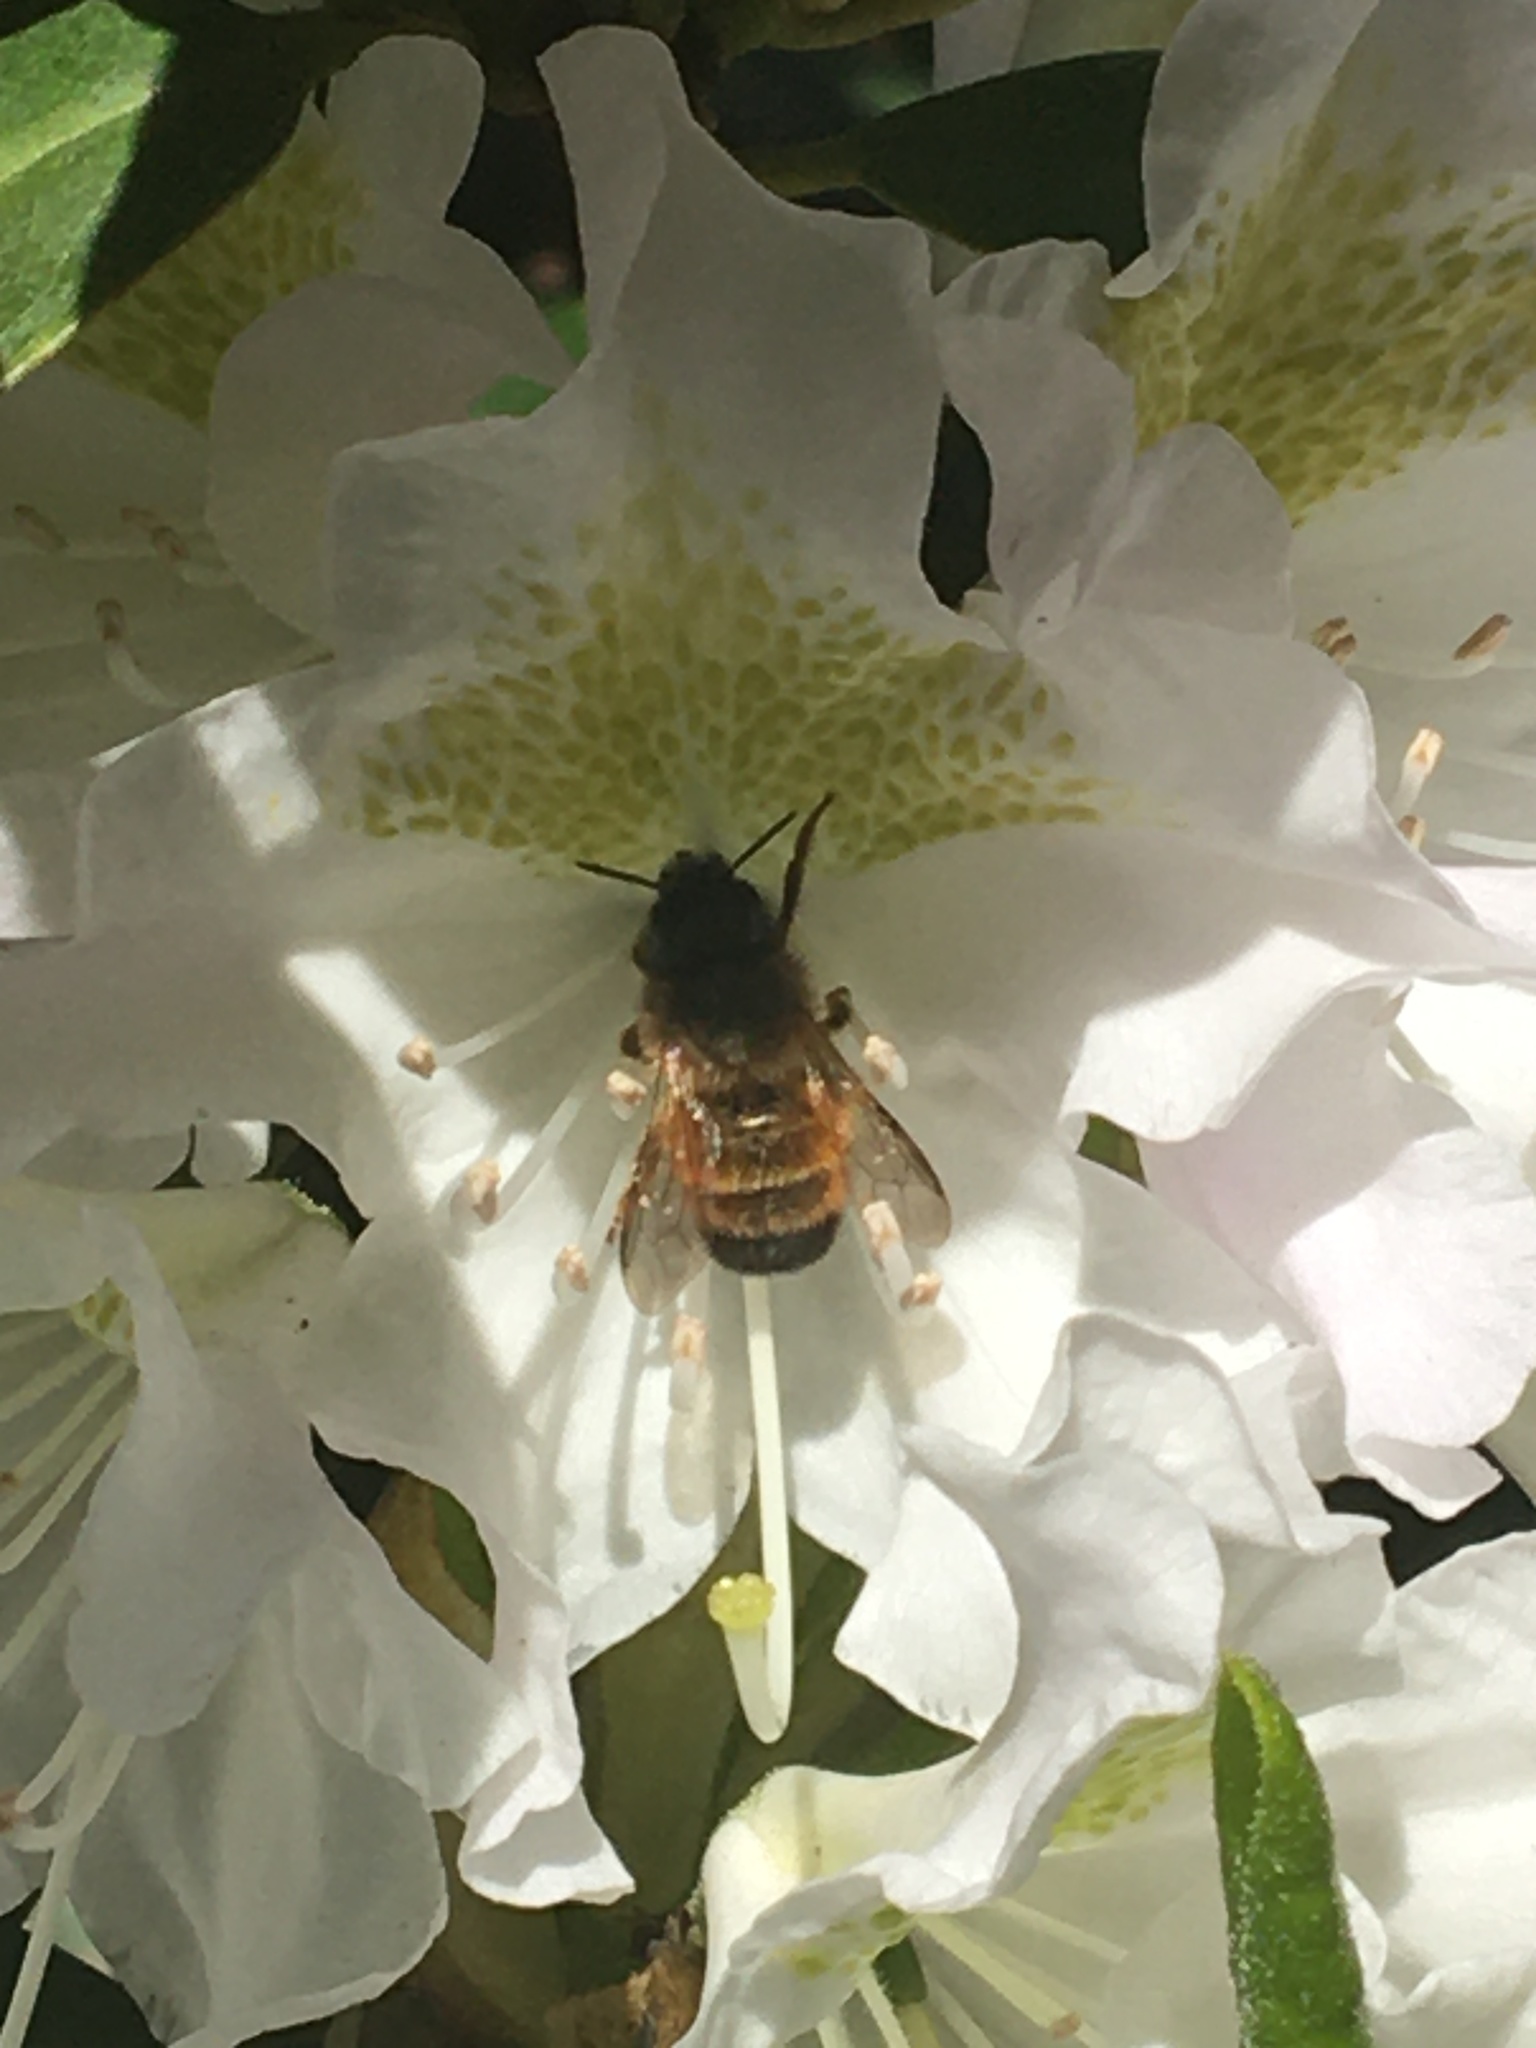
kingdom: Animalia
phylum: Arthropoda
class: Insecta
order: Hymenoptera
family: Megachilidae
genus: Osmia
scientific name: Osmia bicornis
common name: Red mason bee
